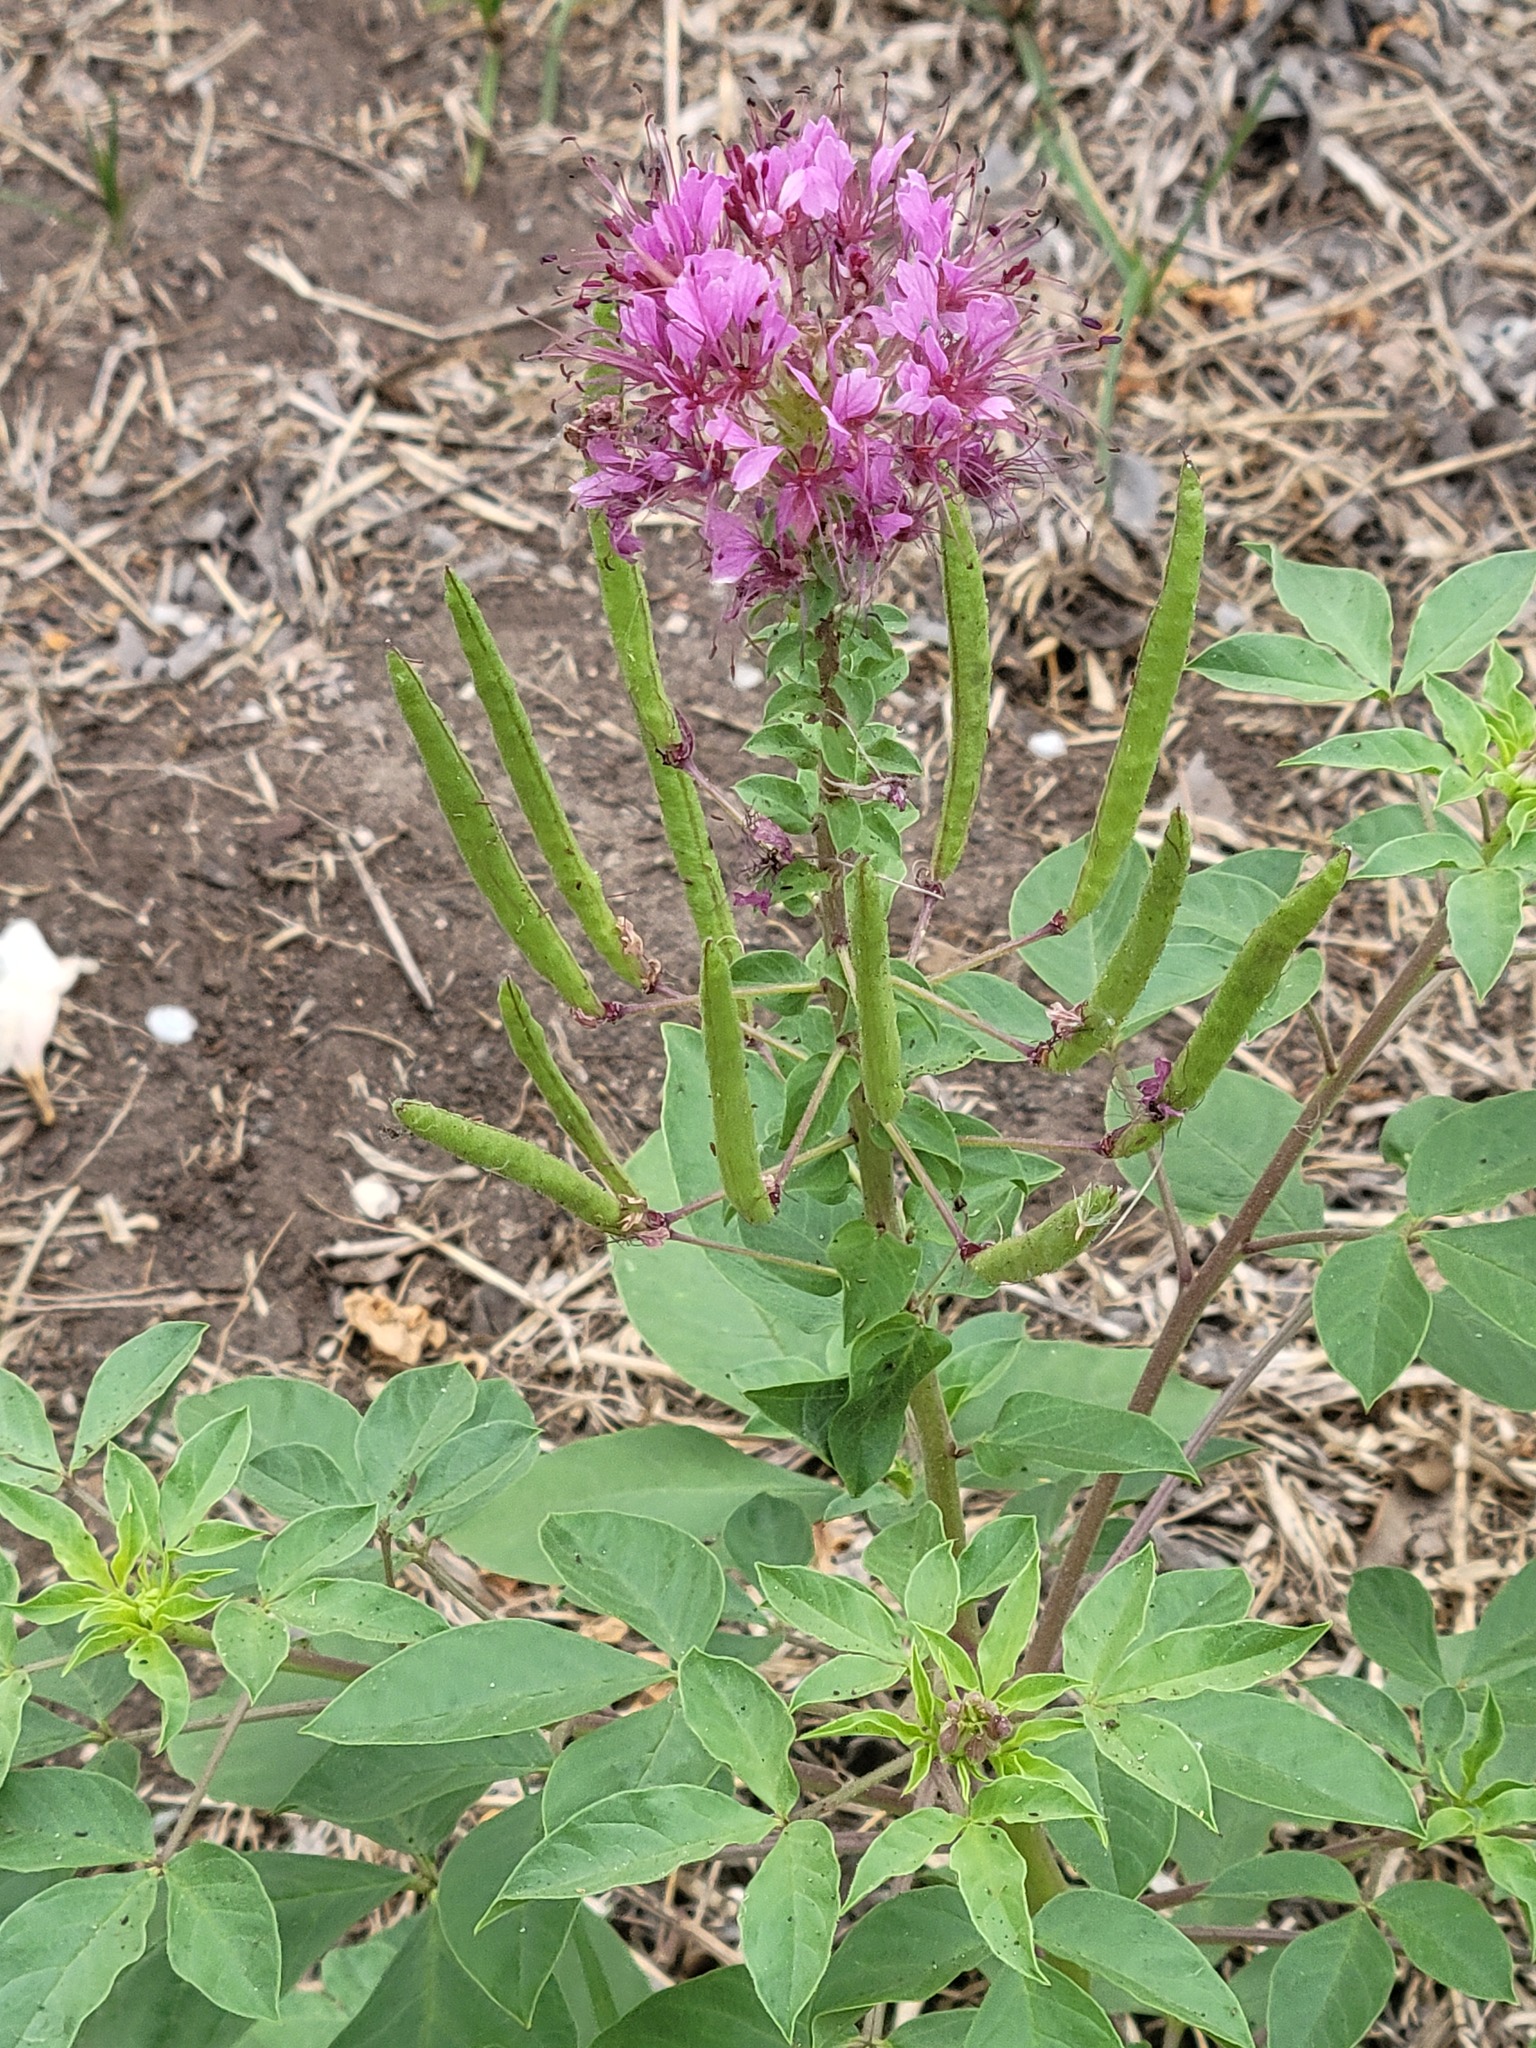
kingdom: Plantae
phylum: Tracheophyta
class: Magnoliopsida
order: Brassicales
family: Cleomaceae
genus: Polanisia
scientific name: Polanisia dodecandra
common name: Clammyweed
